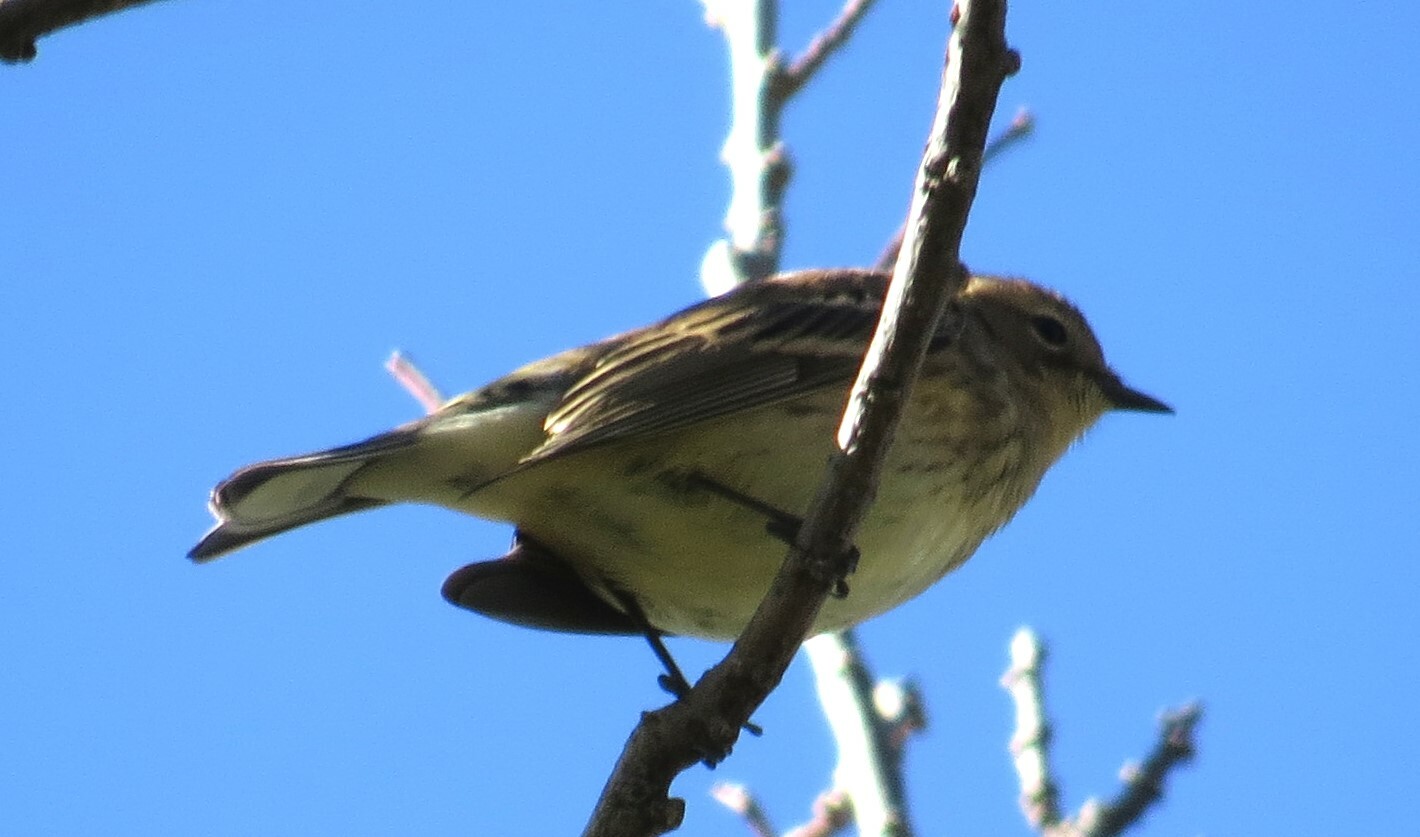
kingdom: Animalia
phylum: Chordata
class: Aves
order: Passeriformes
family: Parulidae
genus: Setophaga
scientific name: Setophaga coronata
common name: Myrtle warbler
